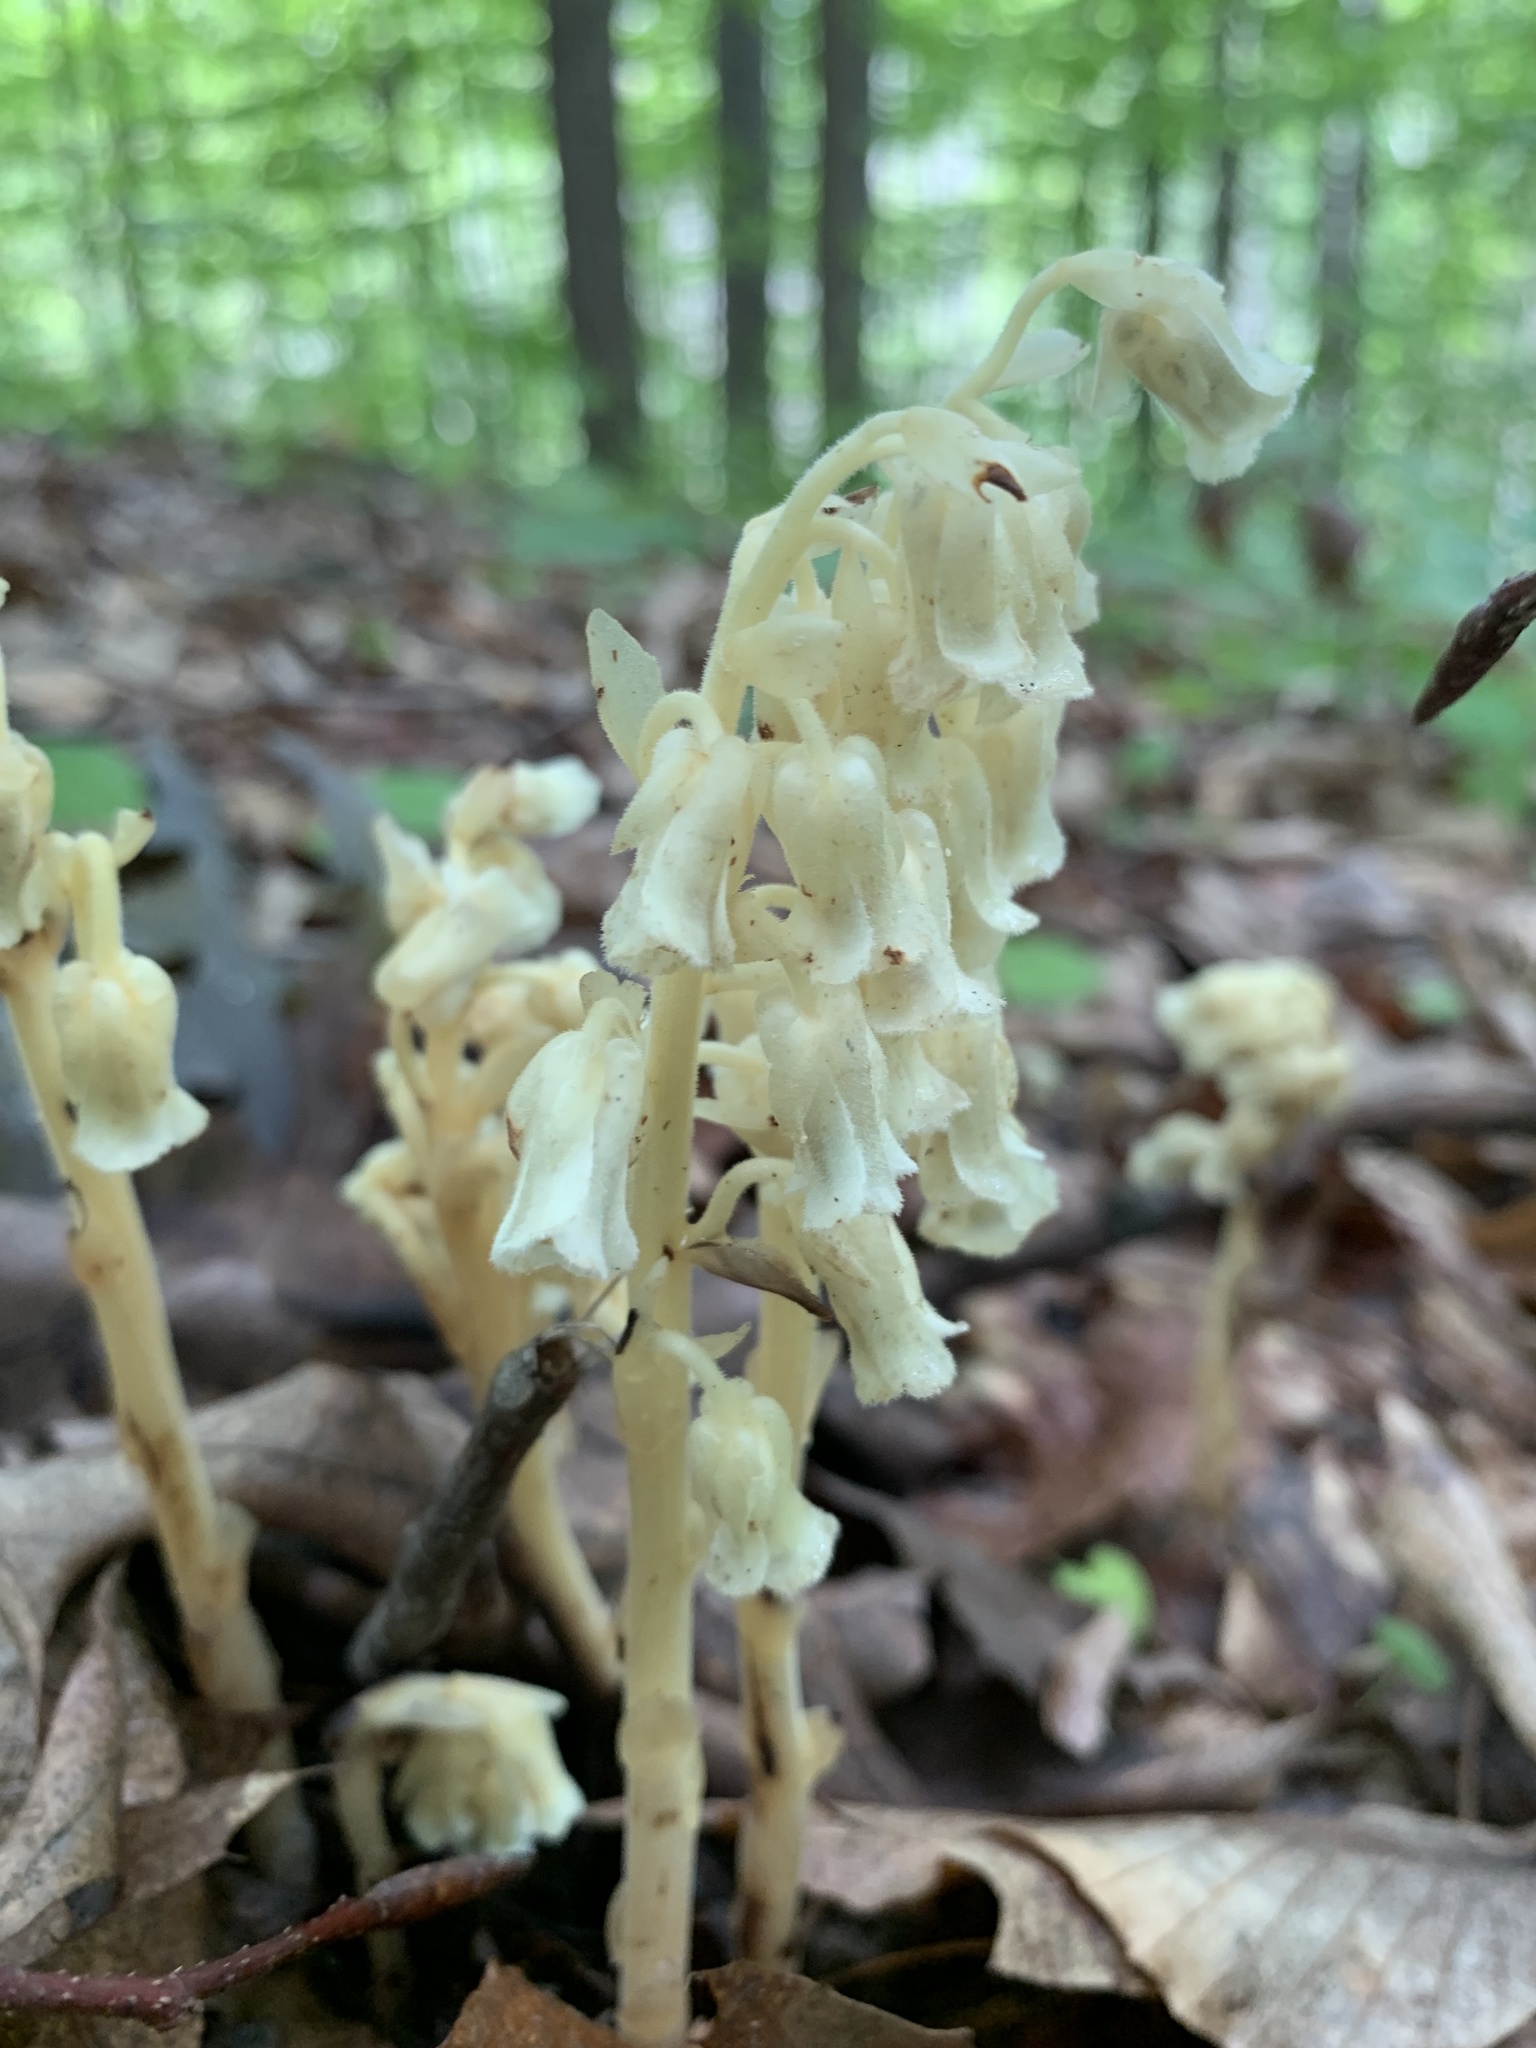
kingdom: Plantae
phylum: Tracheophyta
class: Magnoliopsida
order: Ericales
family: Ericaceae
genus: Hypopitys
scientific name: Hypopitys monotropa
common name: Yellow bird's-nest
